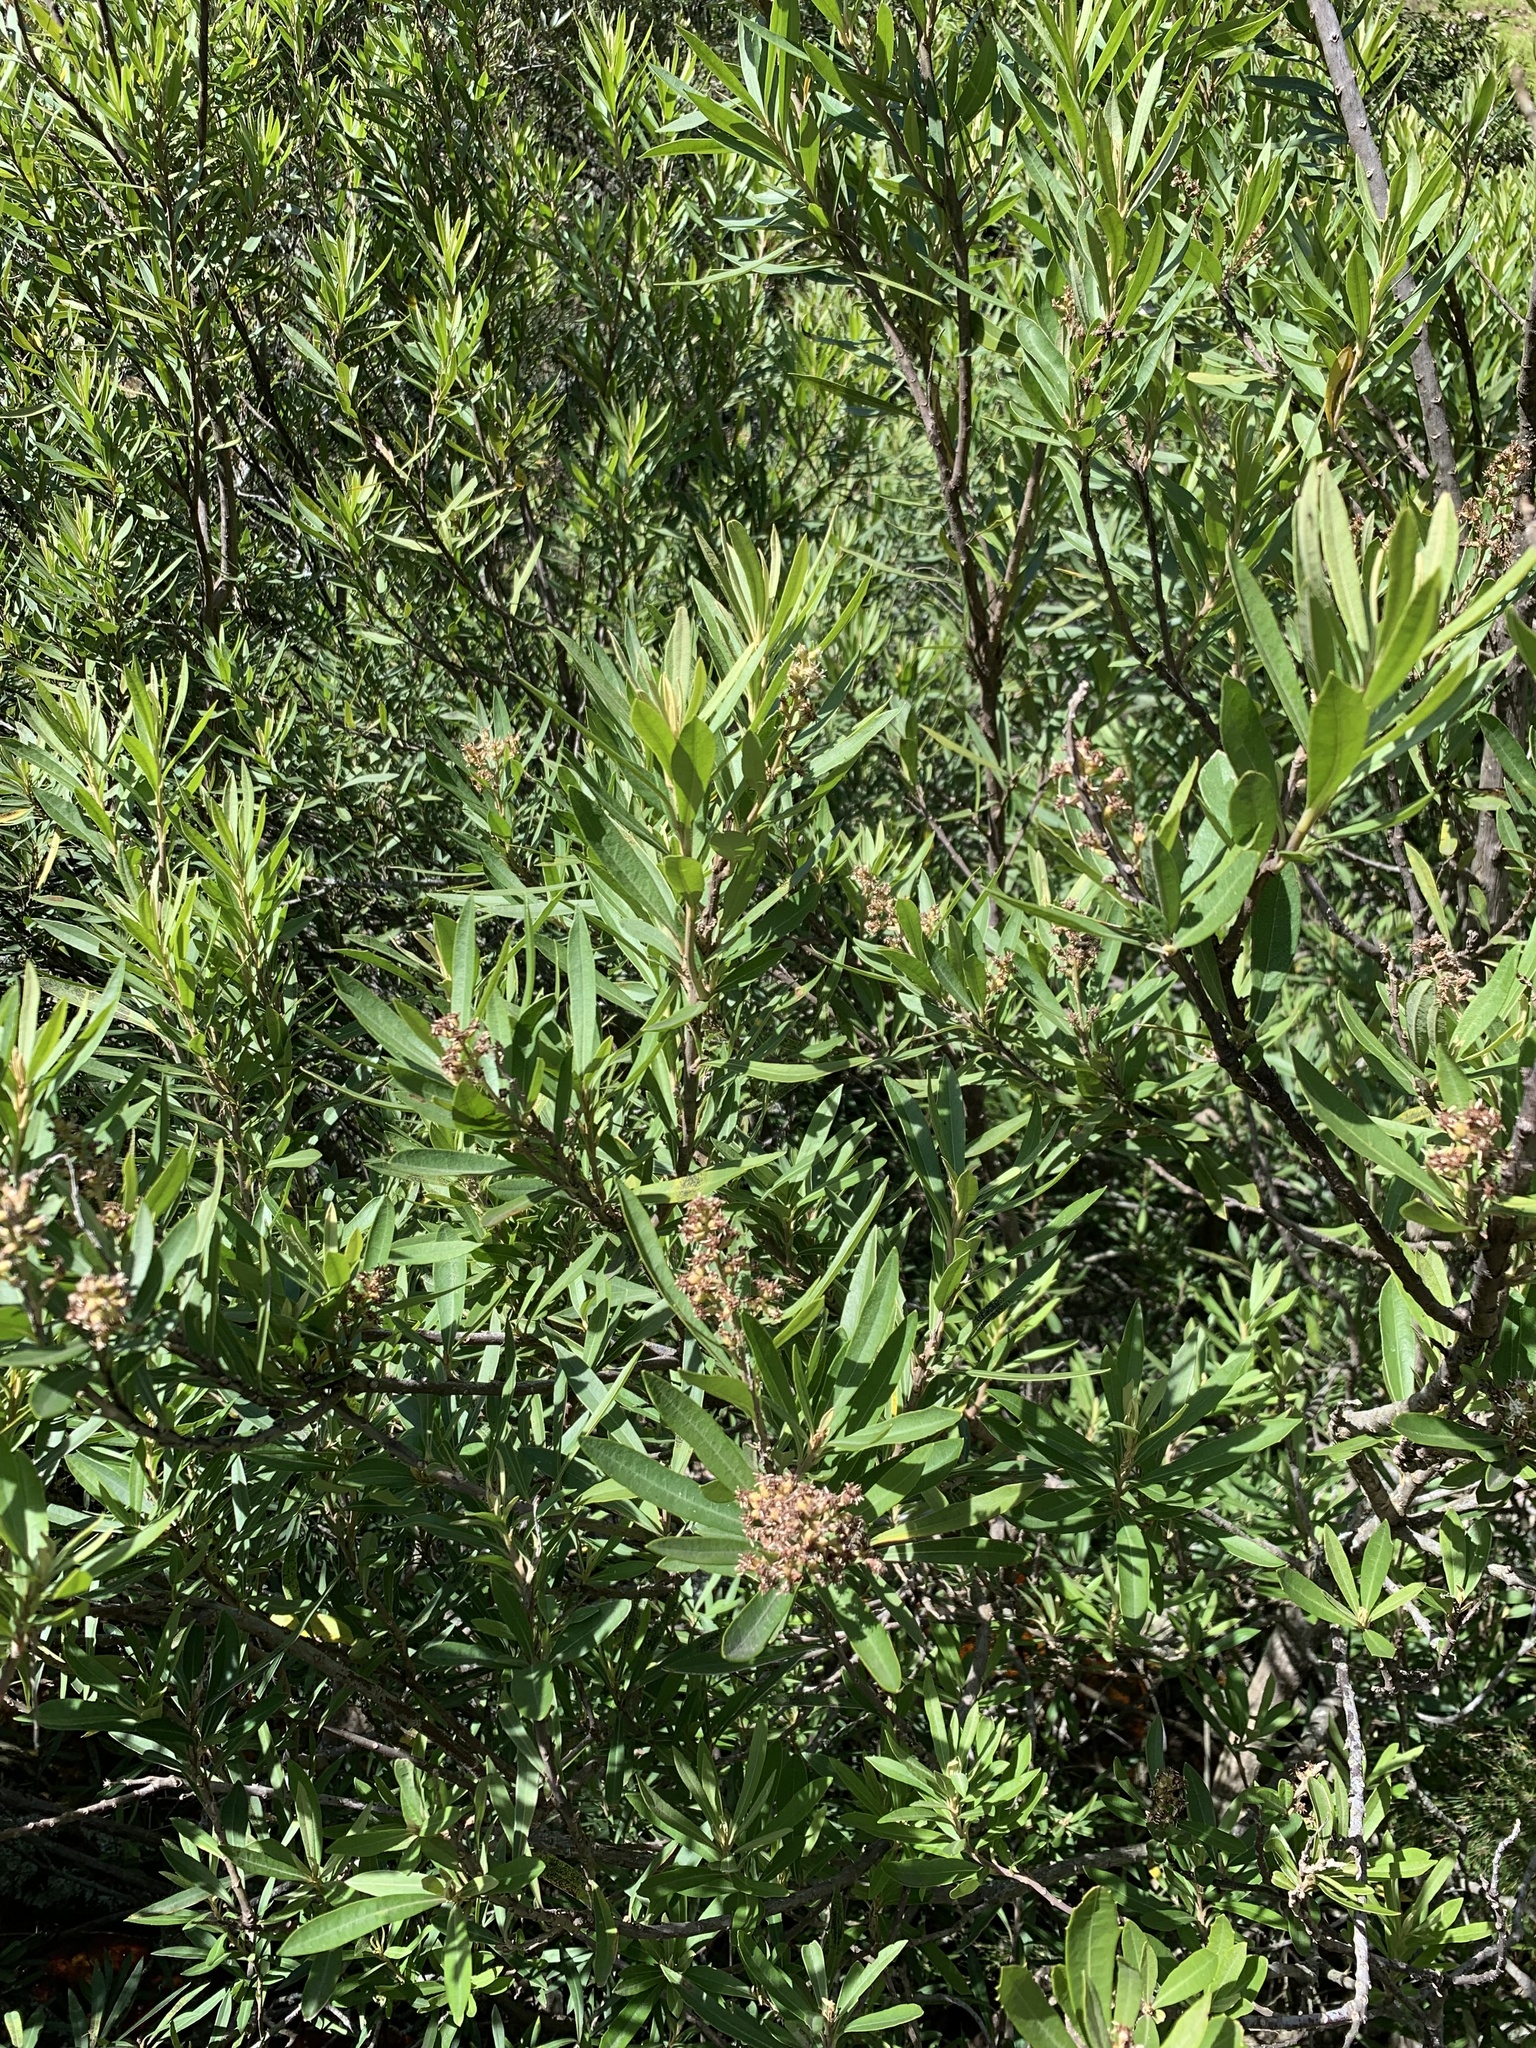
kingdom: Plantae
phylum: Tracheophyta
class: Magnoliopsida
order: Asterales
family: Asteraceae
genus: Brachylaena
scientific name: Brachylaena neriifolia
